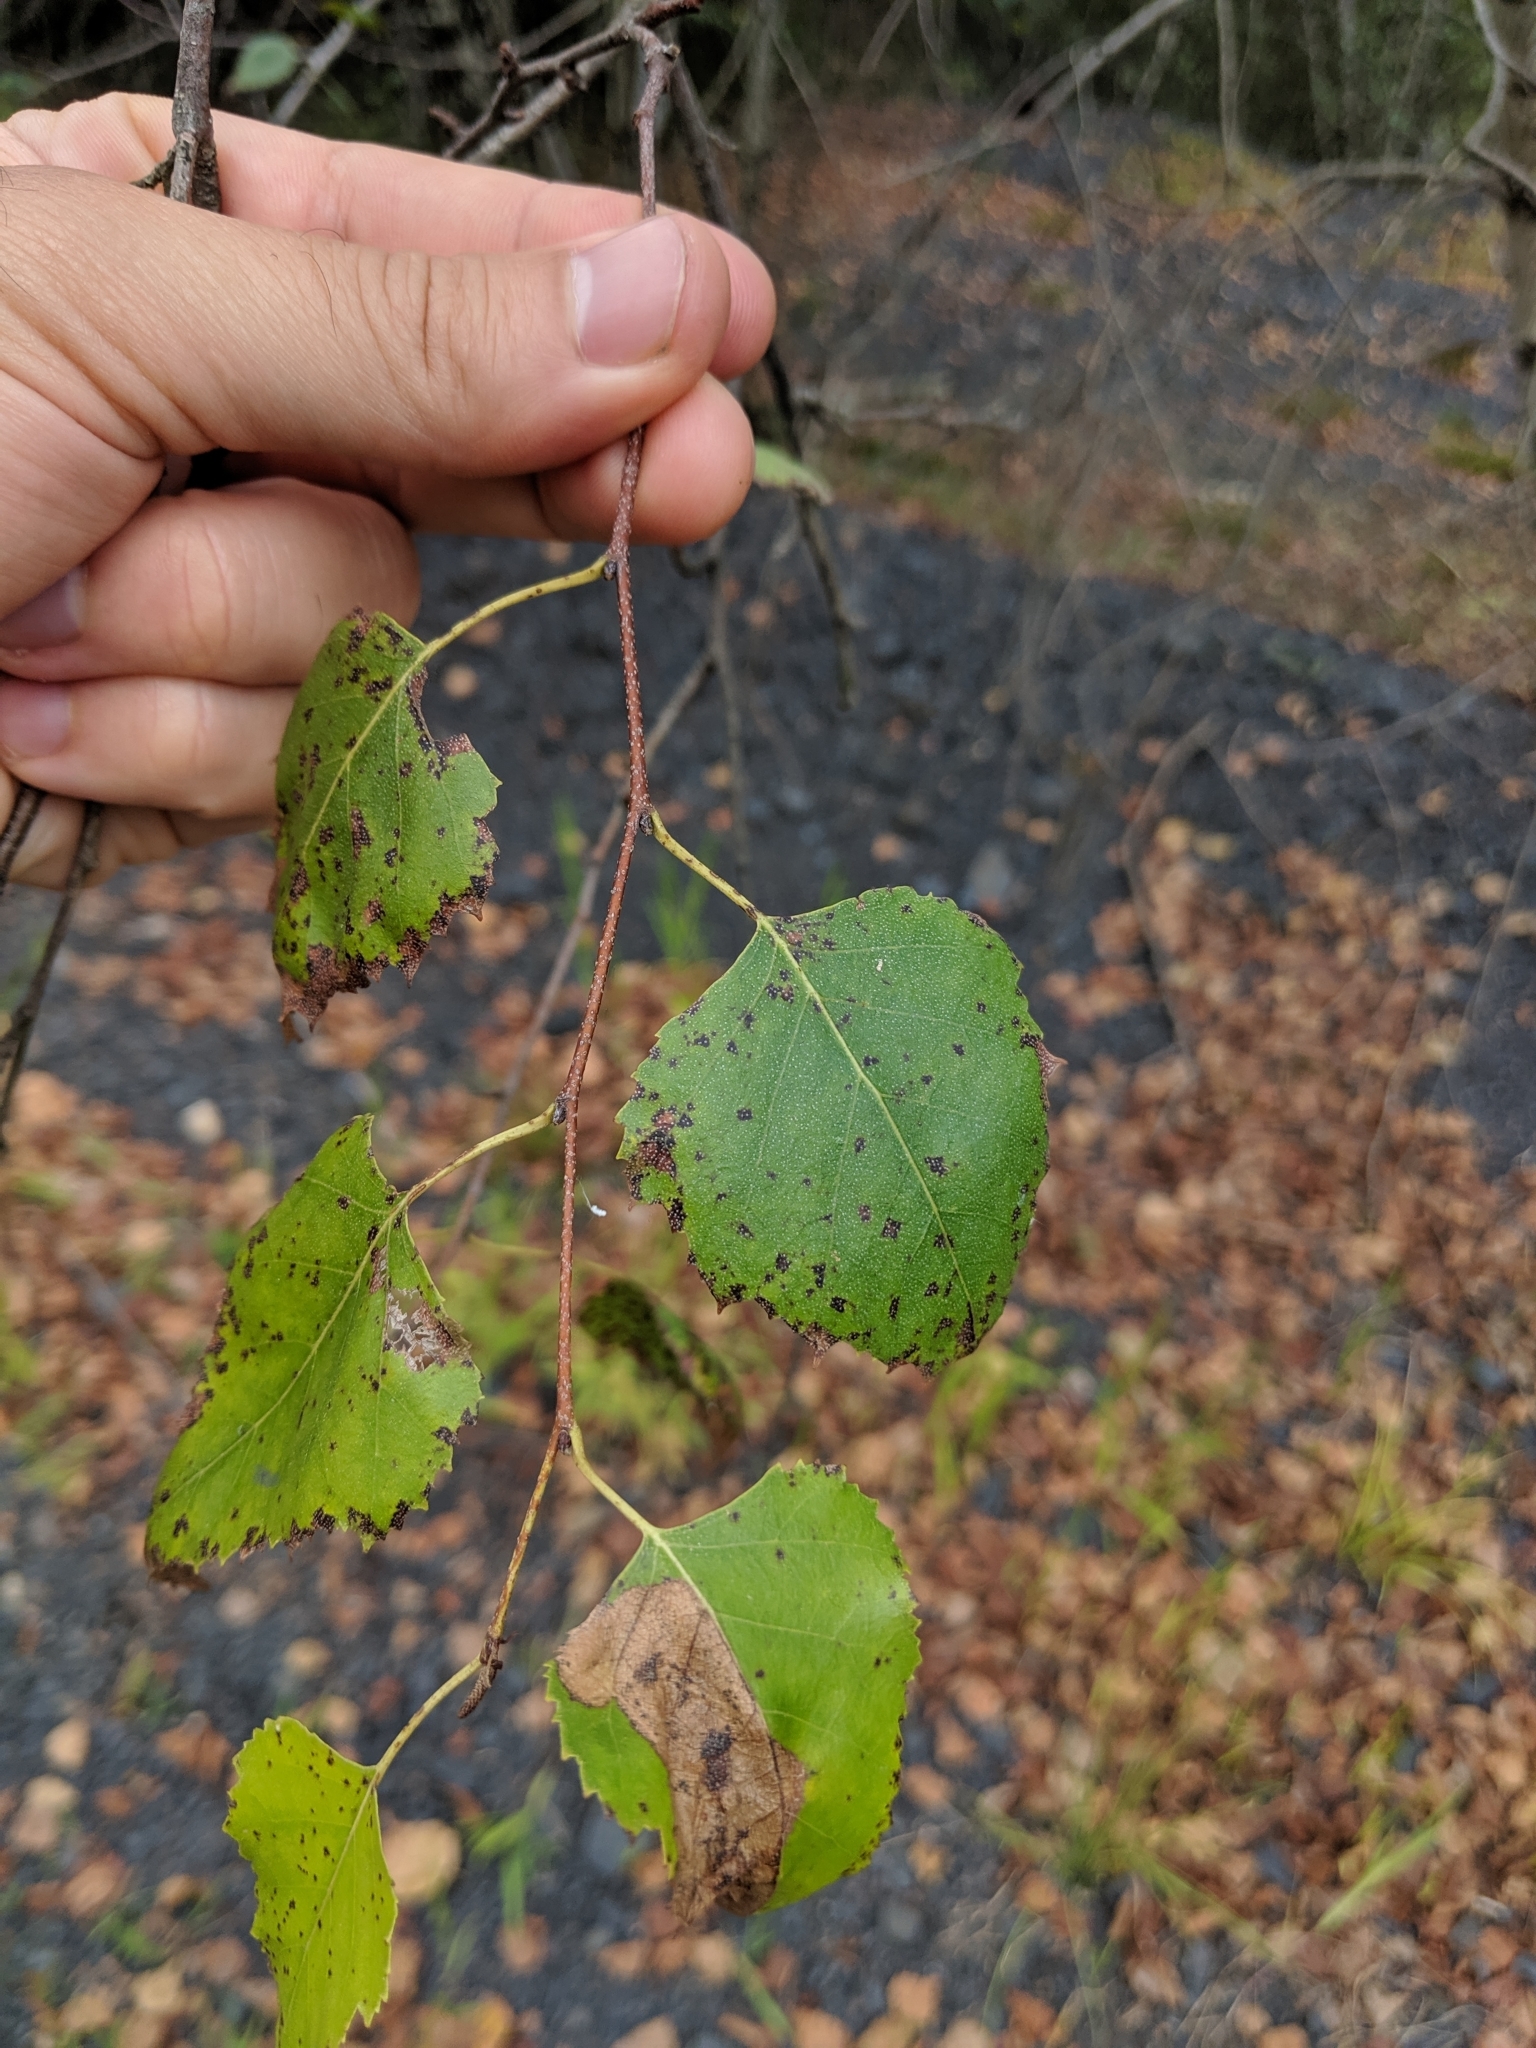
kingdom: Plantae
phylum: Tracheophyta
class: Magnoliopsida
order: Fagales
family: Betulaceae
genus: Betula
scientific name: Betula populifolia
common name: Fire birch
